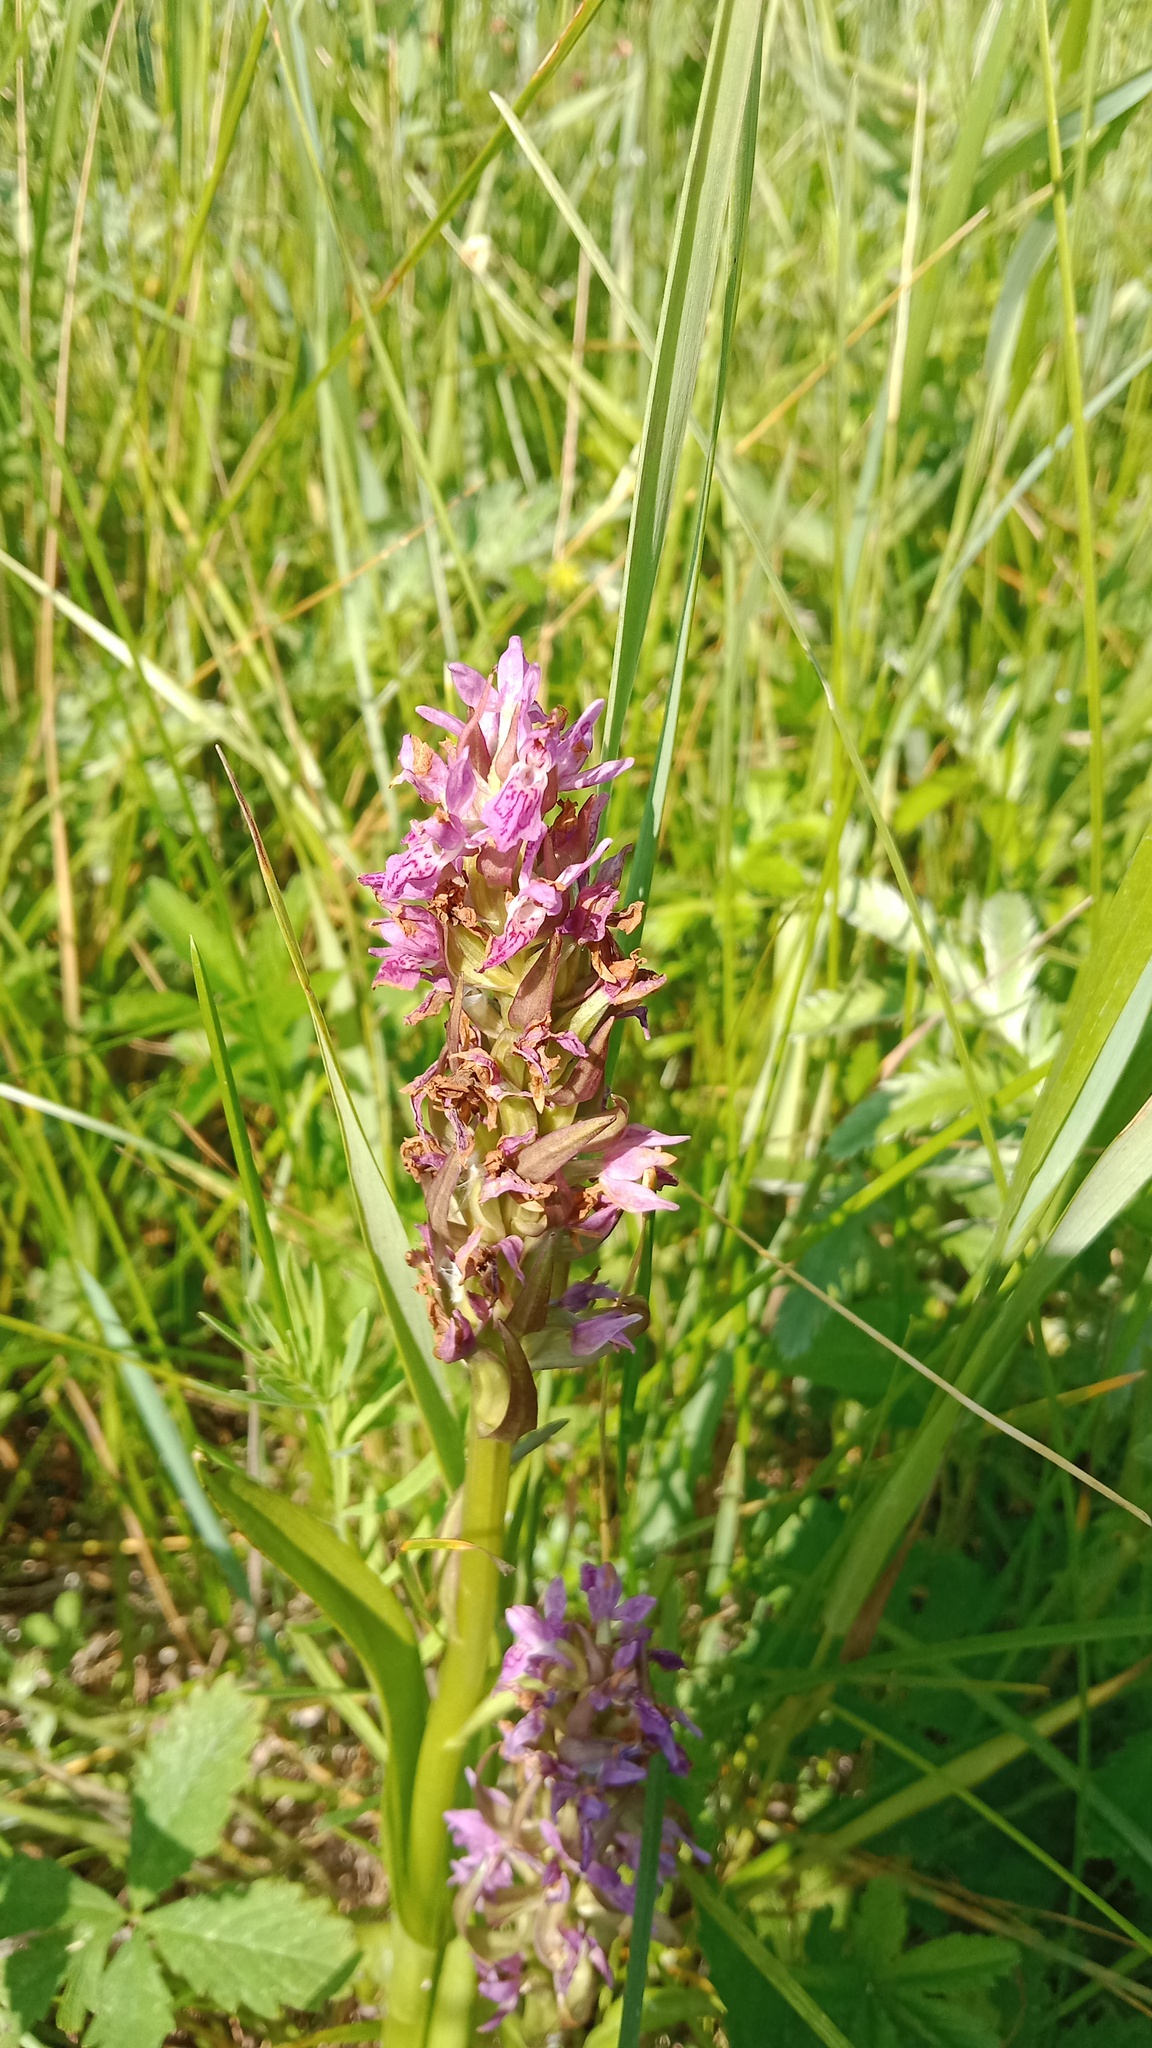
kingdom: Plantae
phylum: Tracheophyta
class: Liliopsida
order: Asparagales
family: Orchidaceae
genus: Dactylorhiza
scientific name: Dactylorhiza incarnata
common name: Early marsh-orchid
